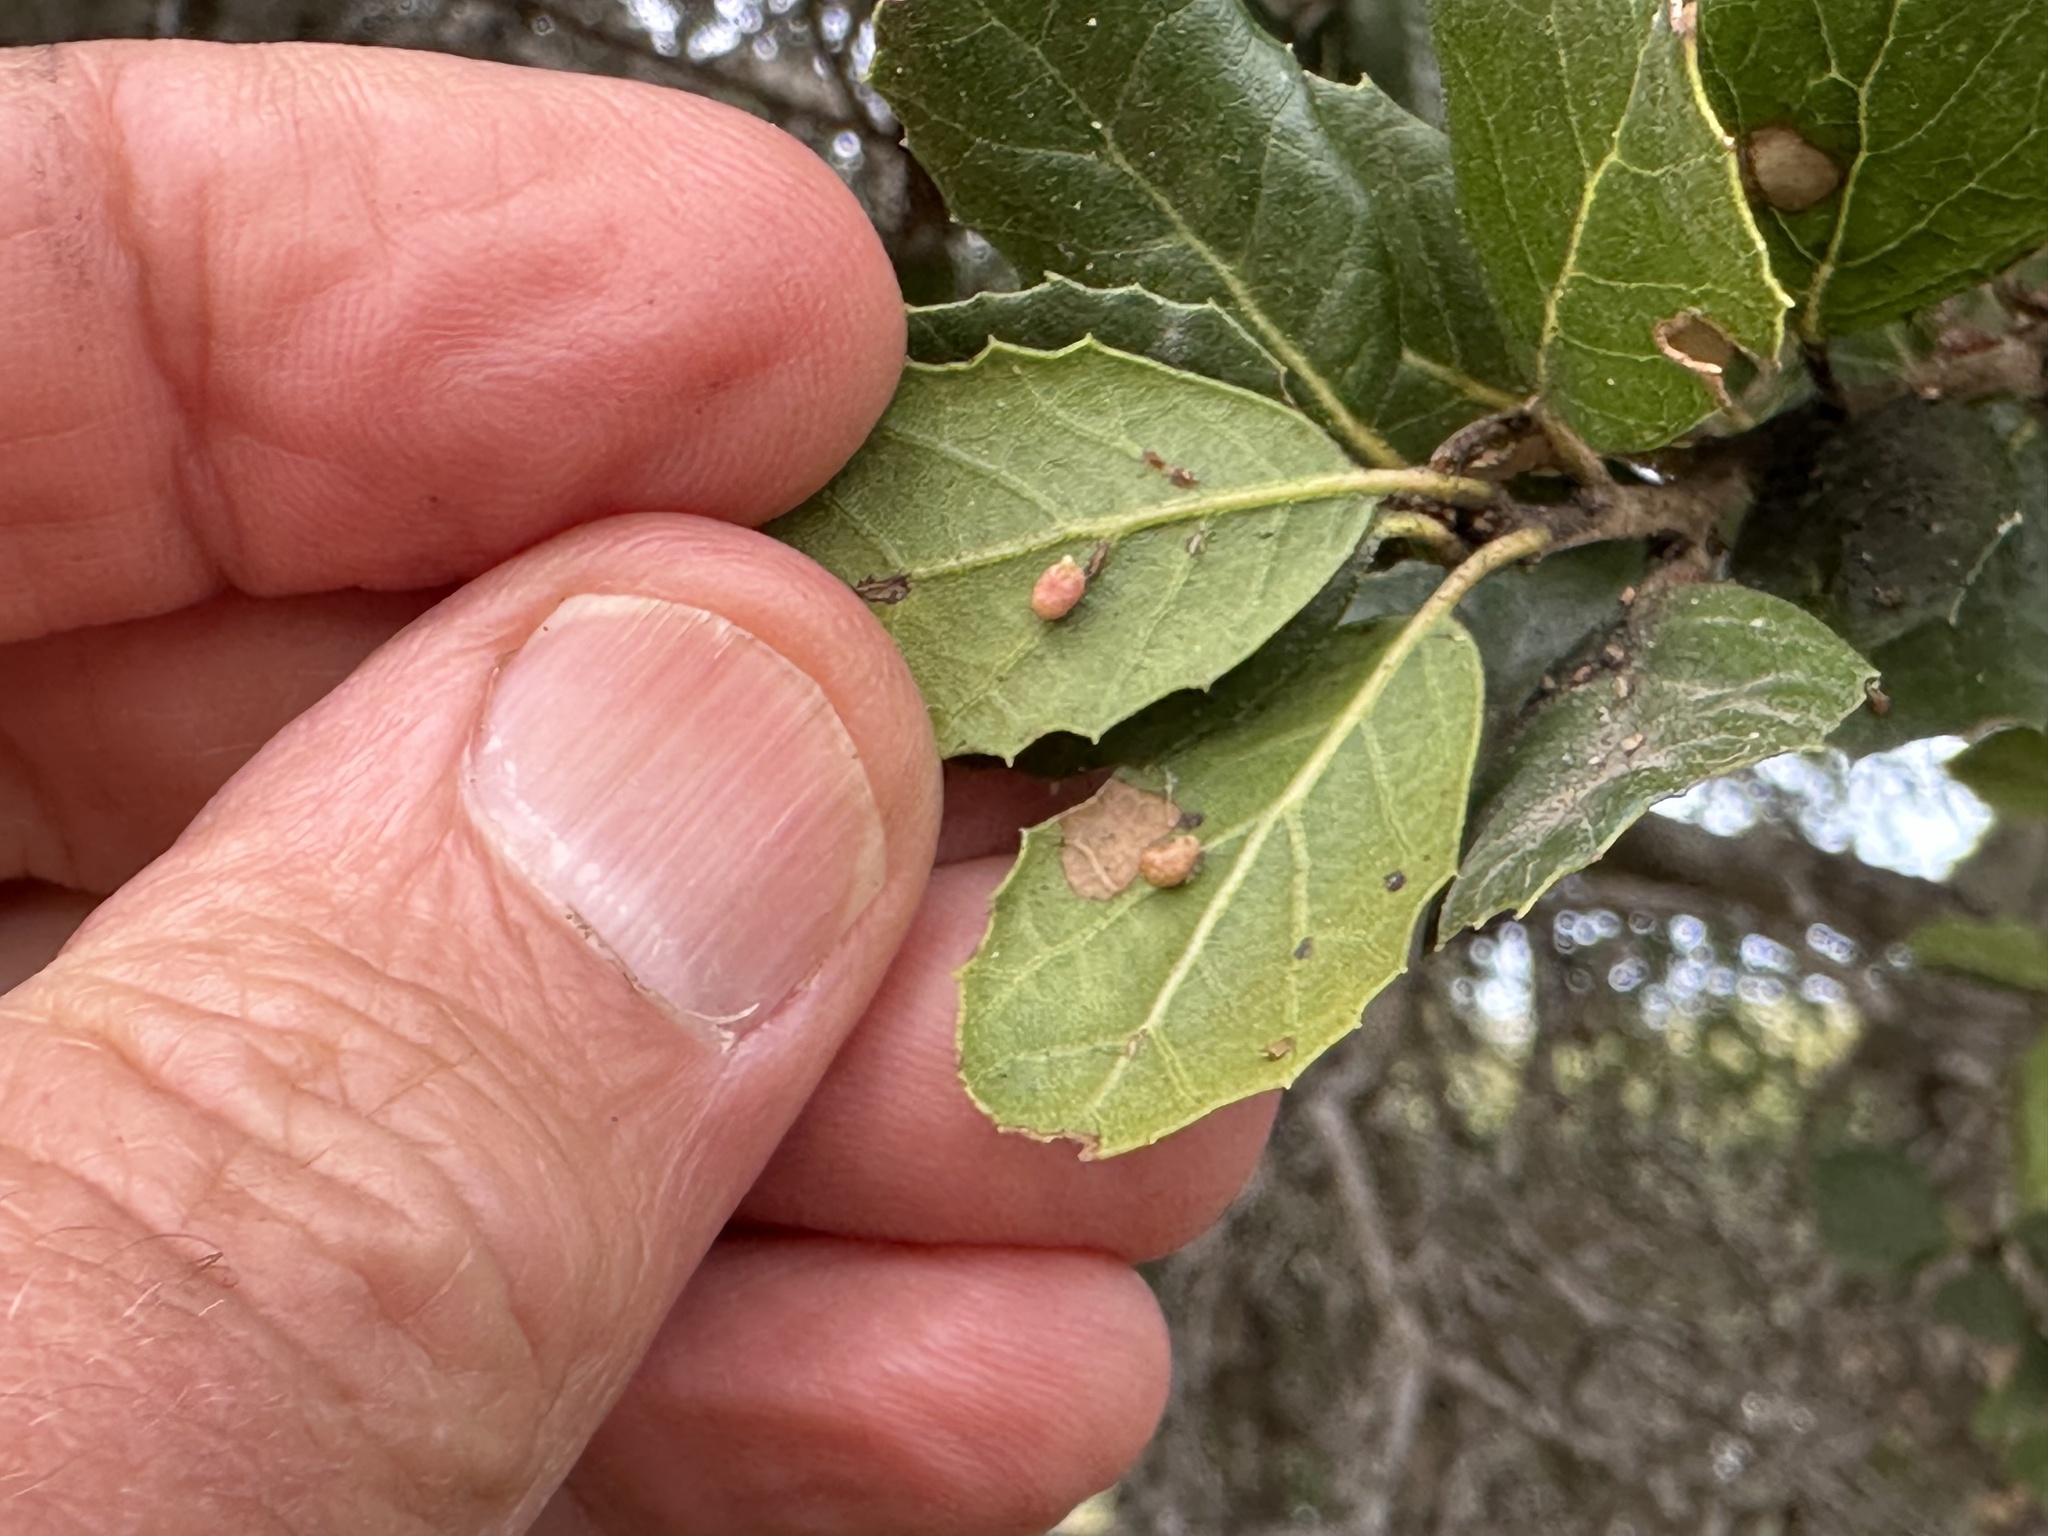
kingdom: Animalia
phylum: Arthropoda
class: Insecta
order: Hymenoptera
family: Cynipidae
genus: Dryocosmus
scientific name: Dryocosmus
